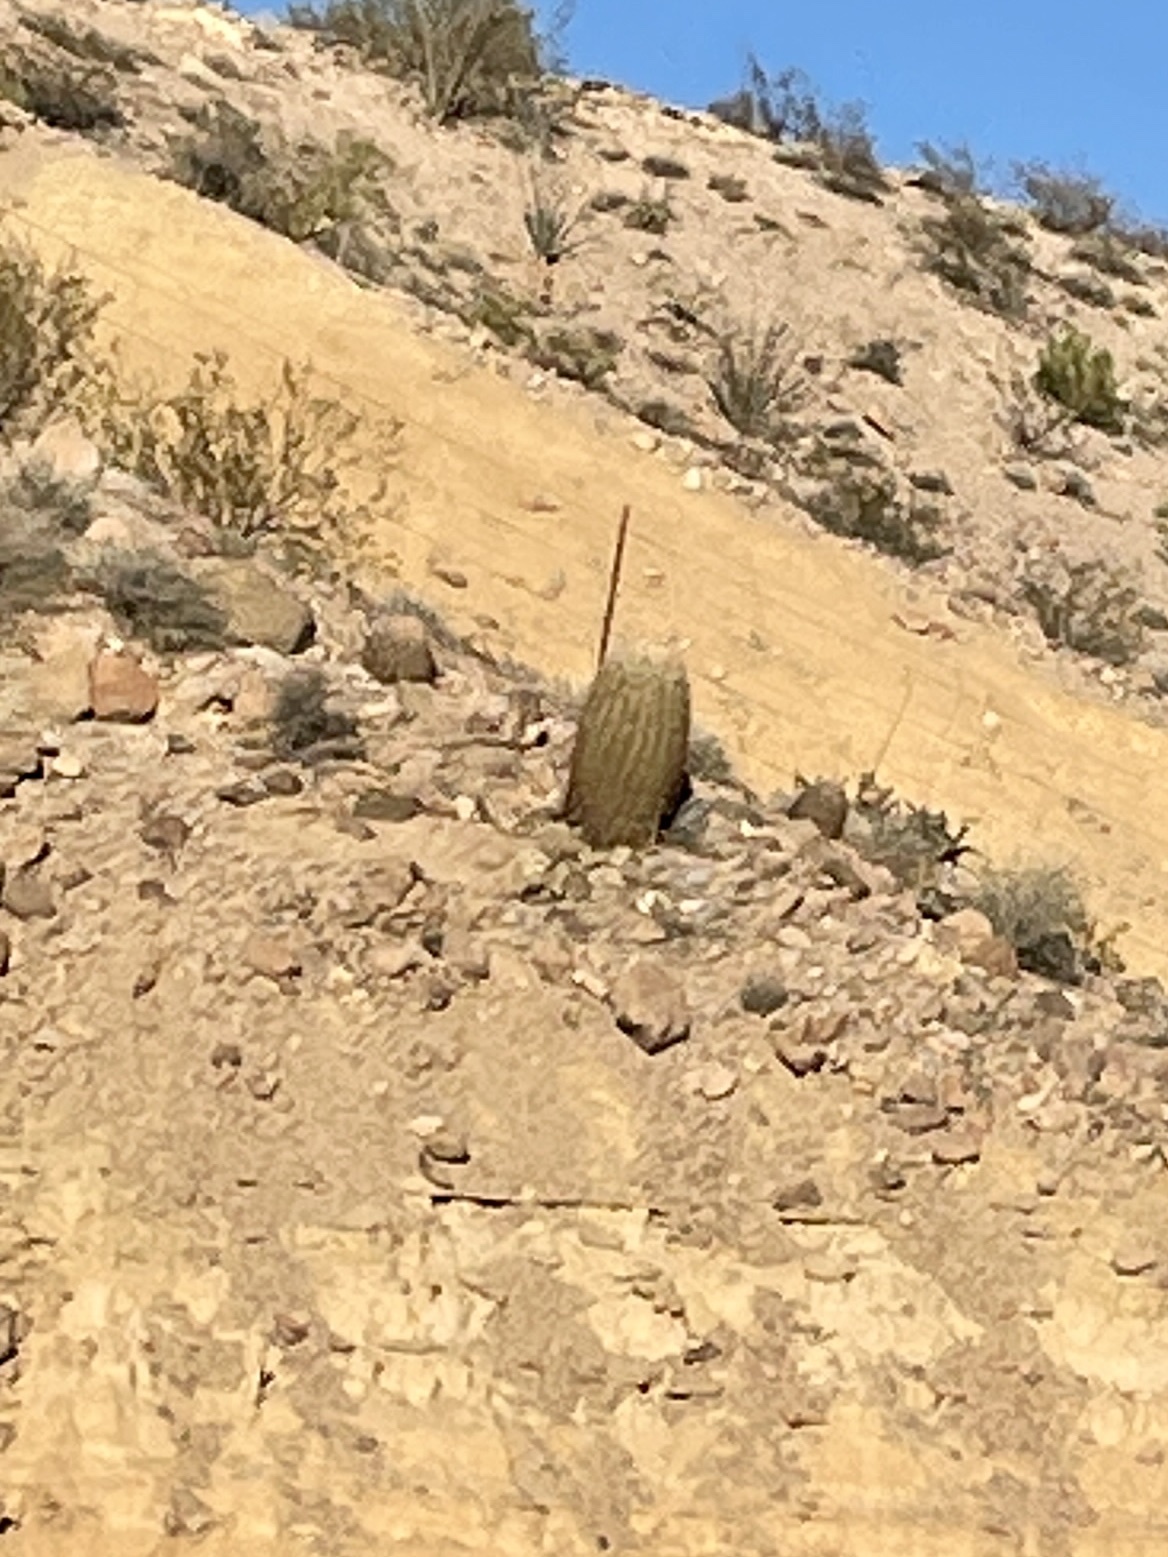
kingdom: Plantae
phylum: Tracheophyta
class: Magnoliopsida
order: Caryophyllales
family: Cactaceae
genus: Ferocactus
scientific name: Ferocactus cylindraceus
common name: California barrel cactus
